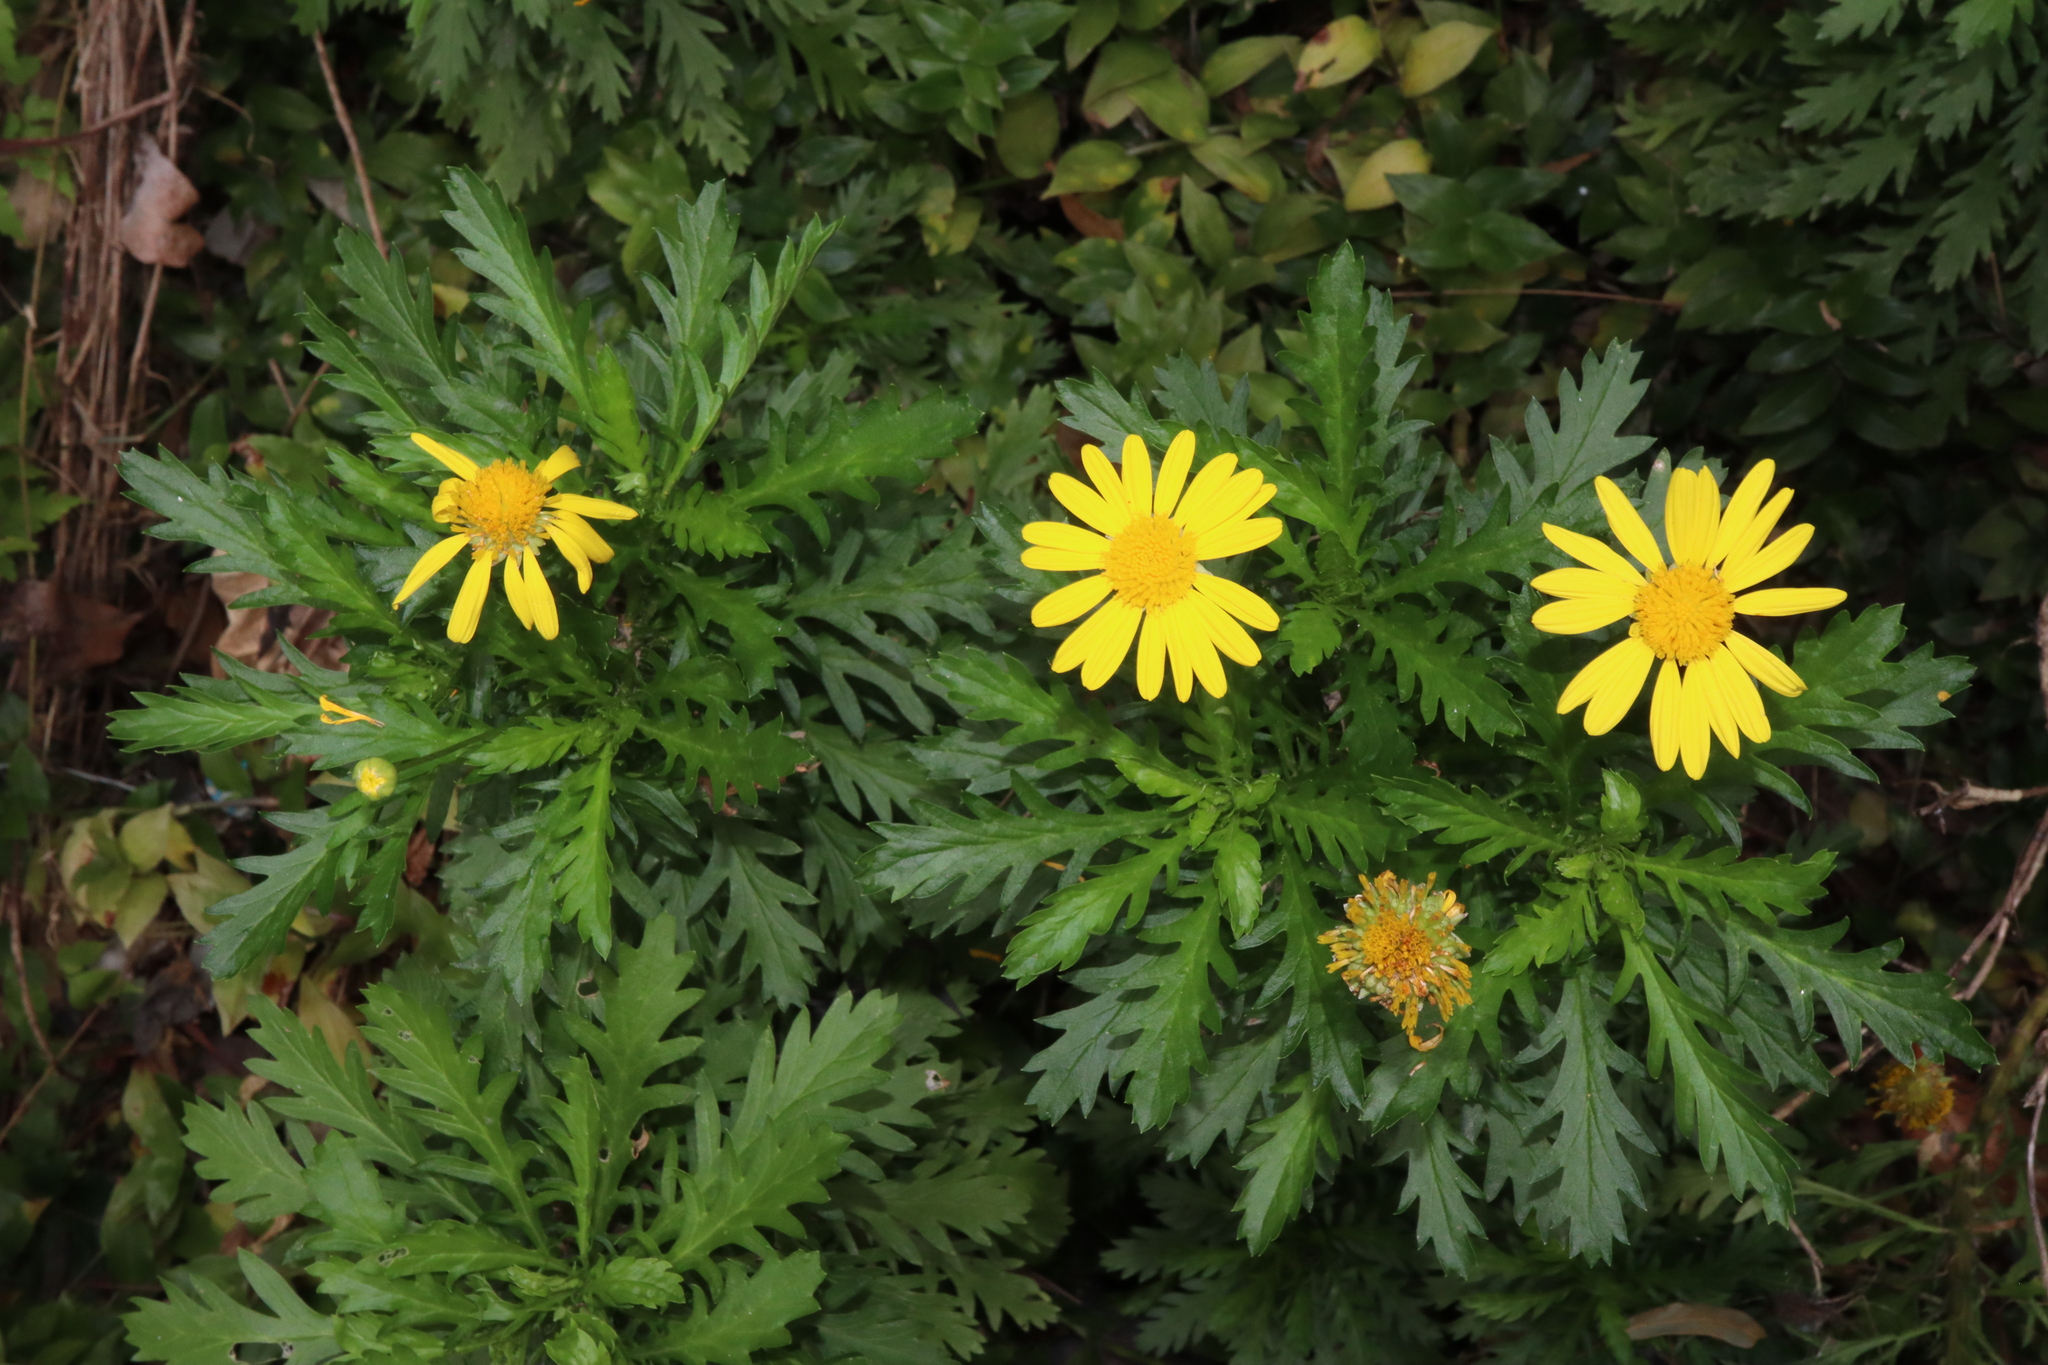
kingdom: Plantae
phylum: Tracheophyta
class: Magnoliopsida
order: Asterales
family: Asteraceae
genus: Euryops
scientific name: Euryops chrysanthemoides
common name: Bull's eye
